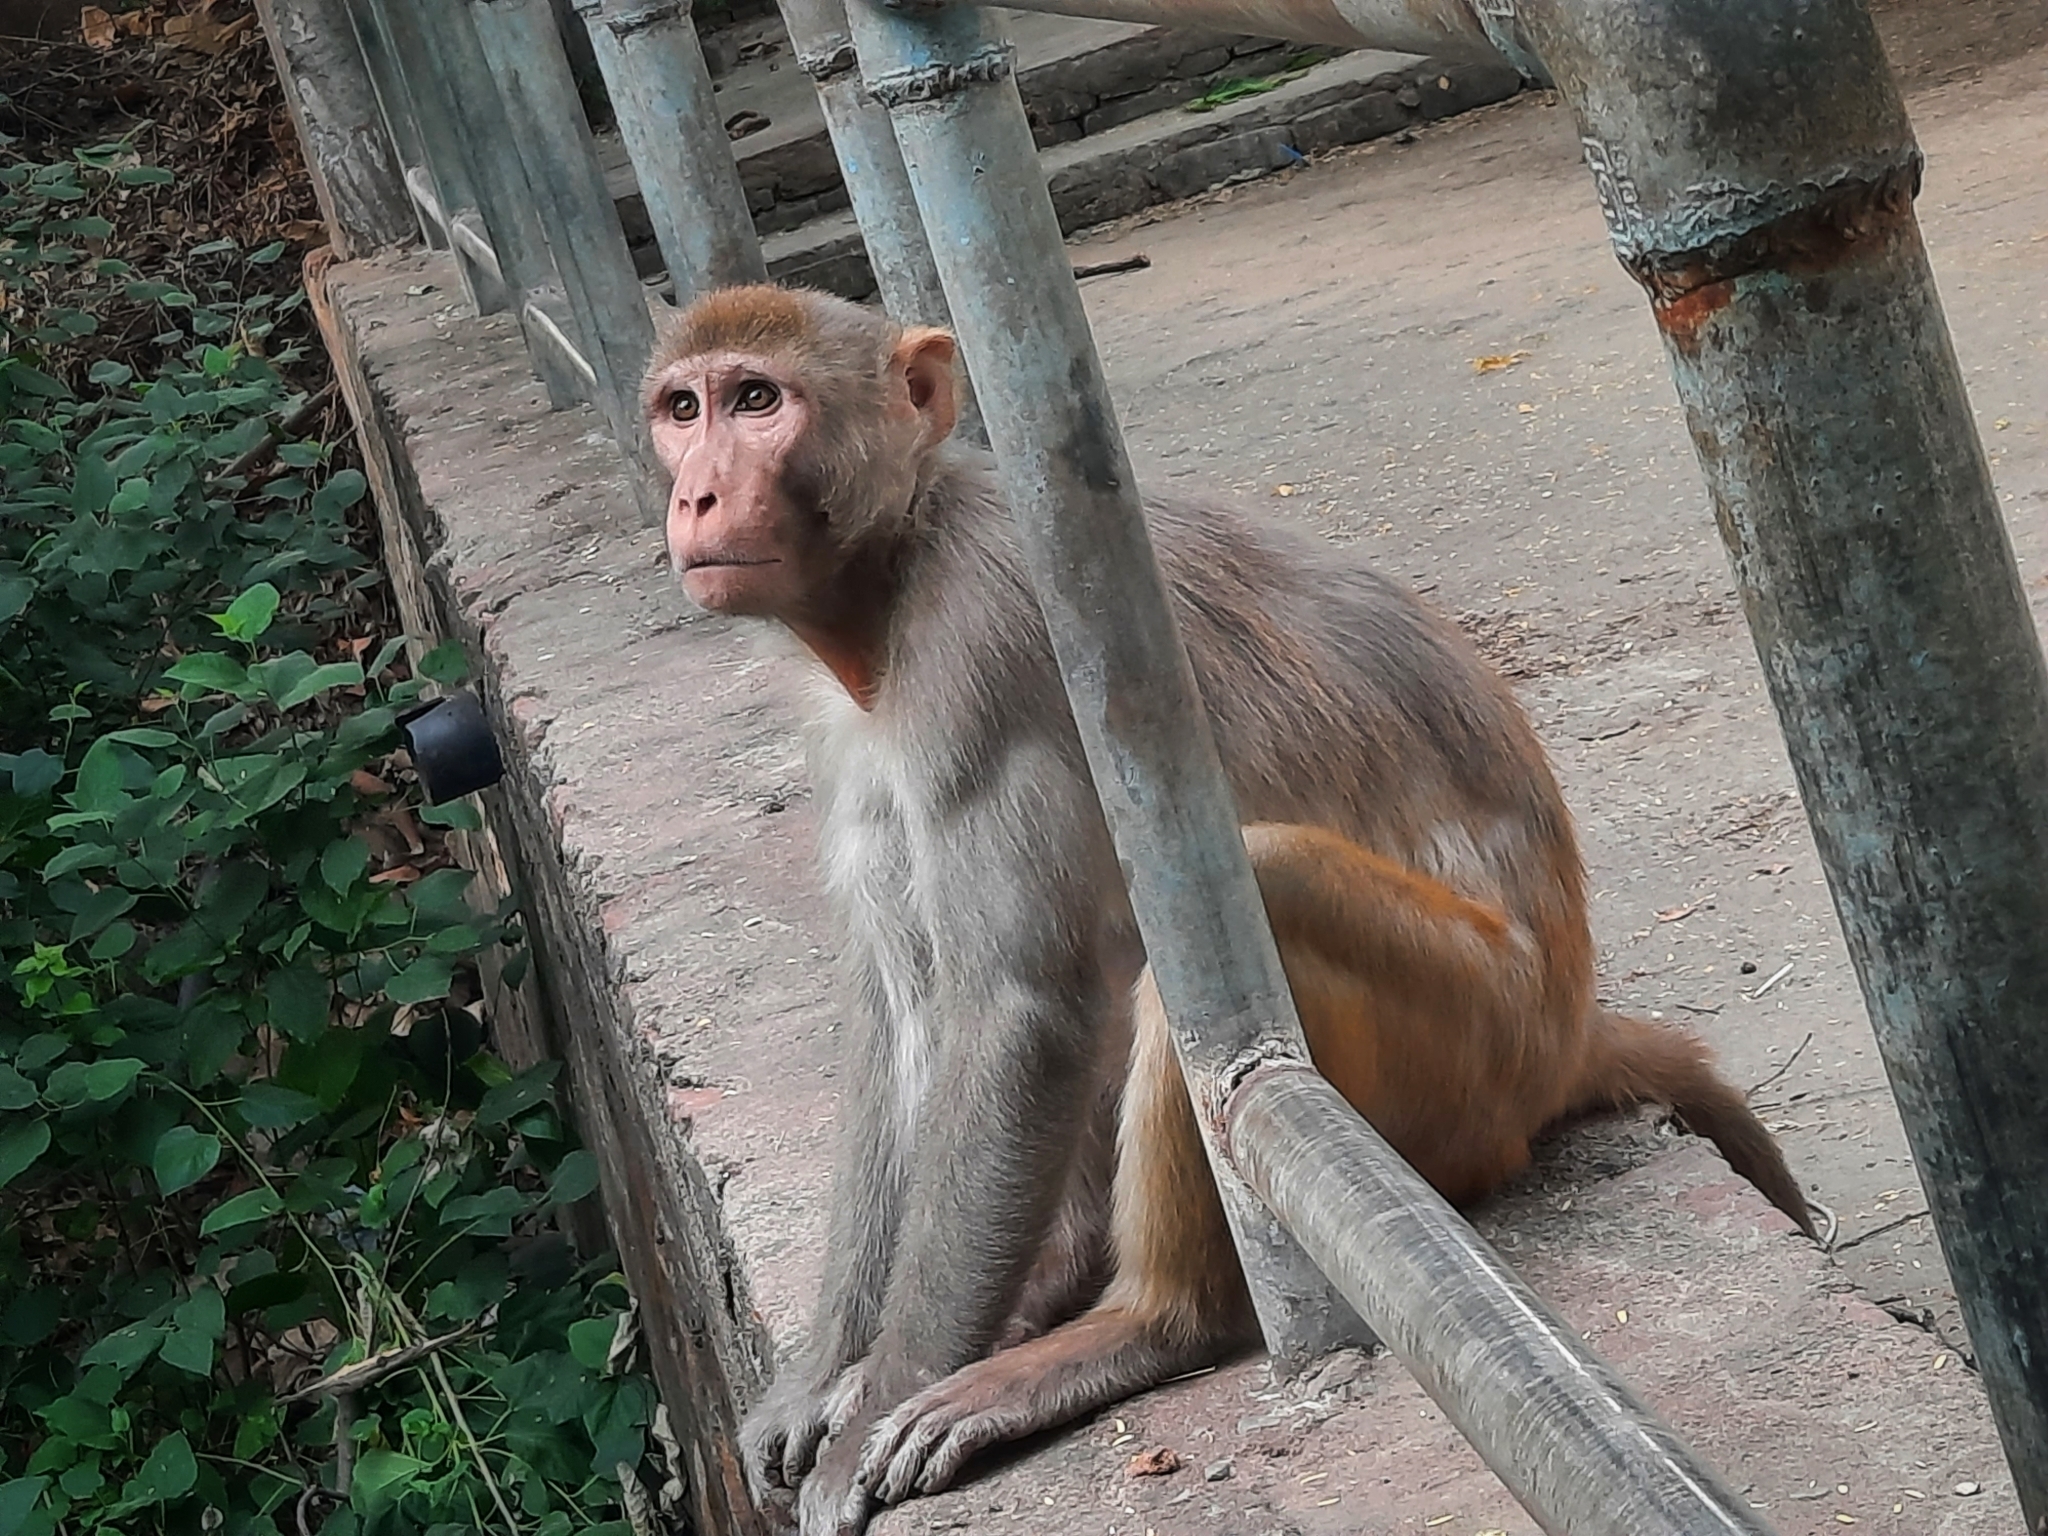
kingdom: Animalia
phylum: Chordata
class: Mammalia
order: Primates
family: Cercopithecidae
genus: Macaca
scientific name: Macaca mulatta
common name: Rhesus monkey
